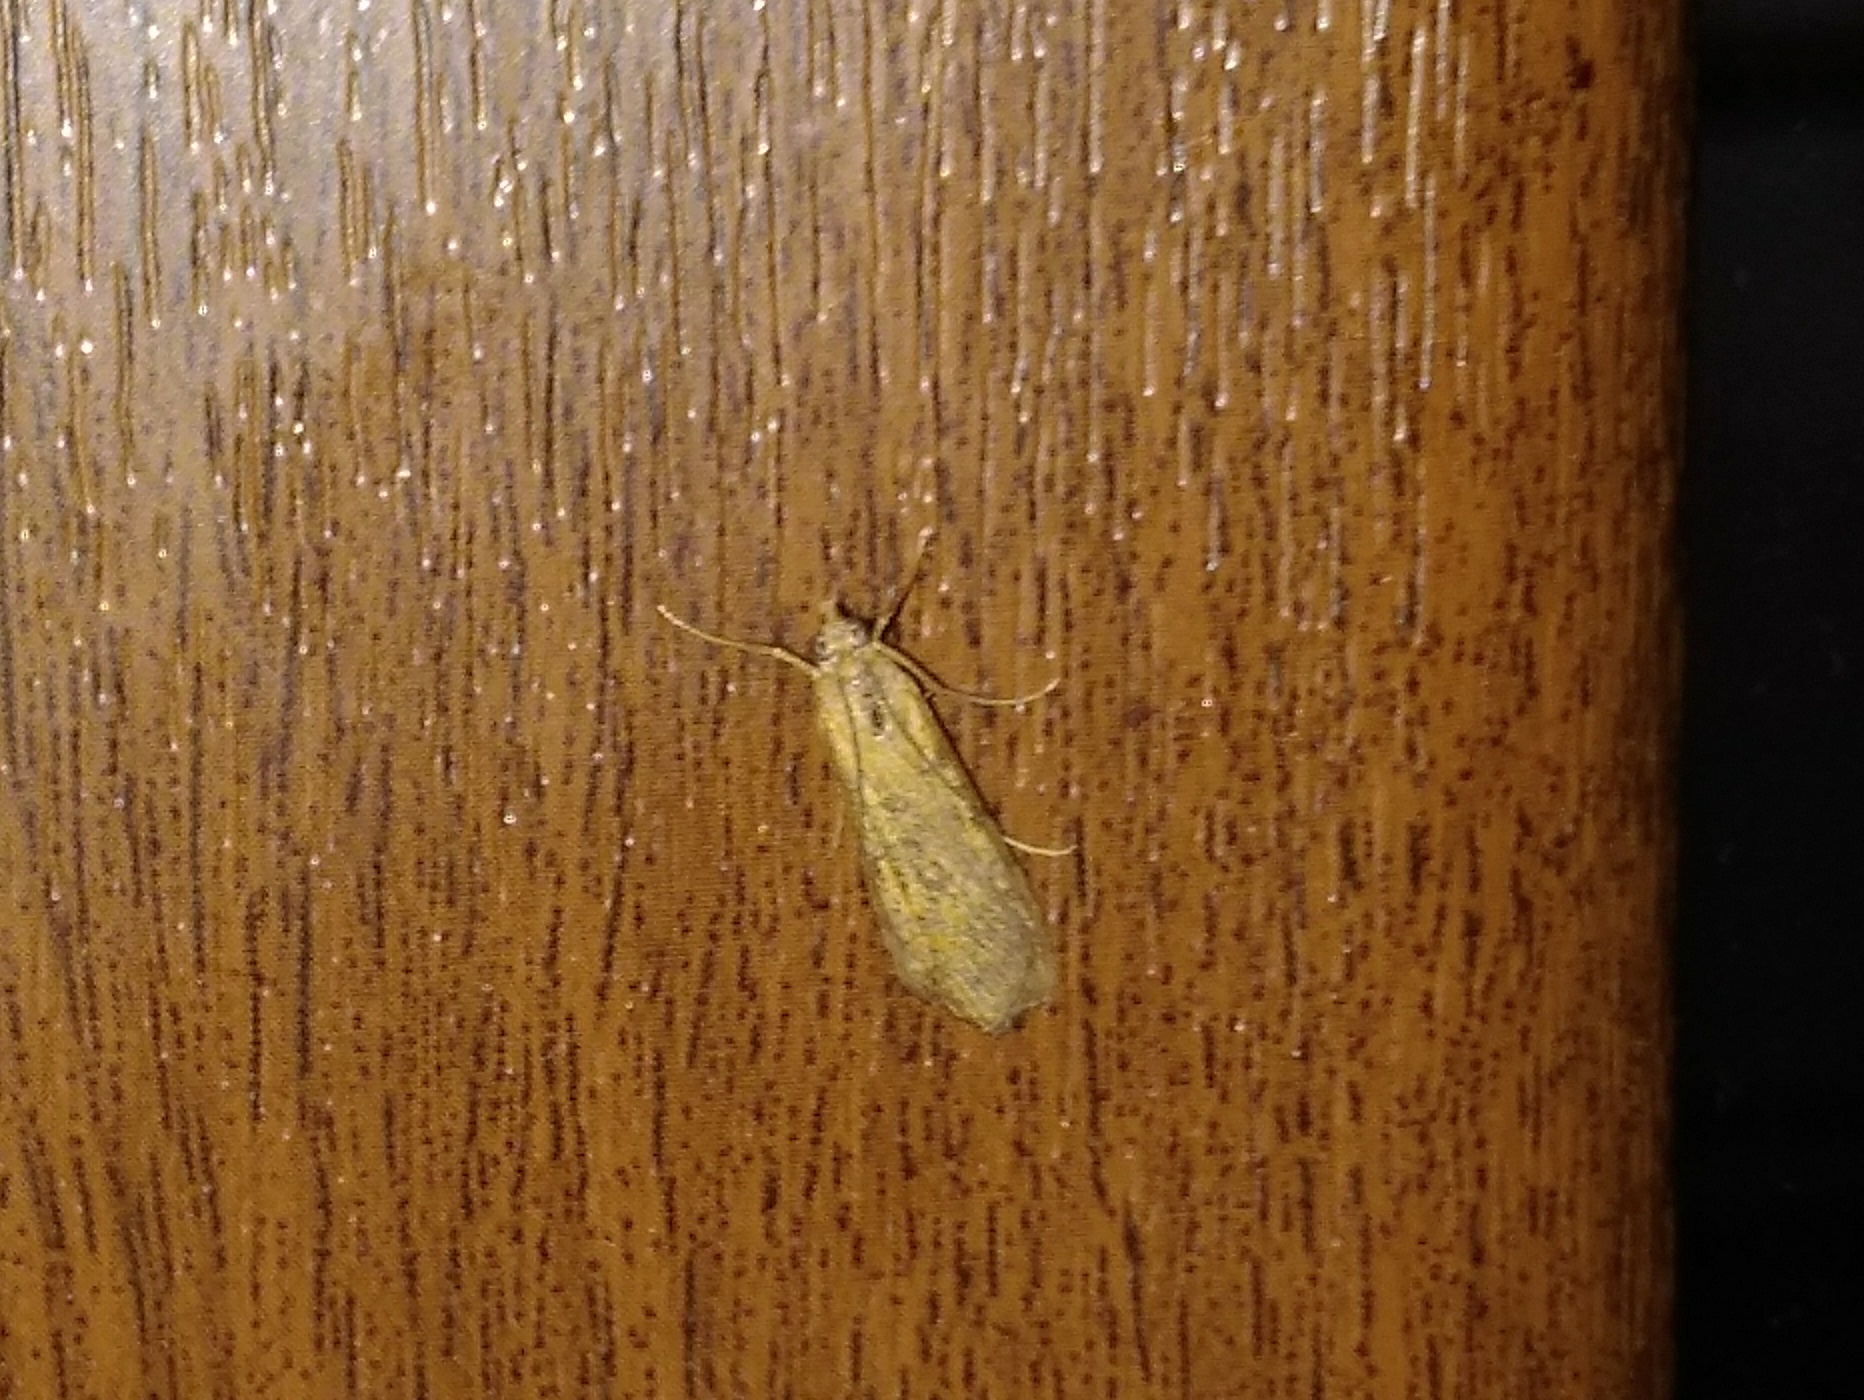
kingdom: Animalia
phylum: Arthropoda
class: Insecta
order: Lepidoptera
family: Crambidae
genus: Nomophila
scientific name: Nomophila noctuella
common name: Rush veneer
